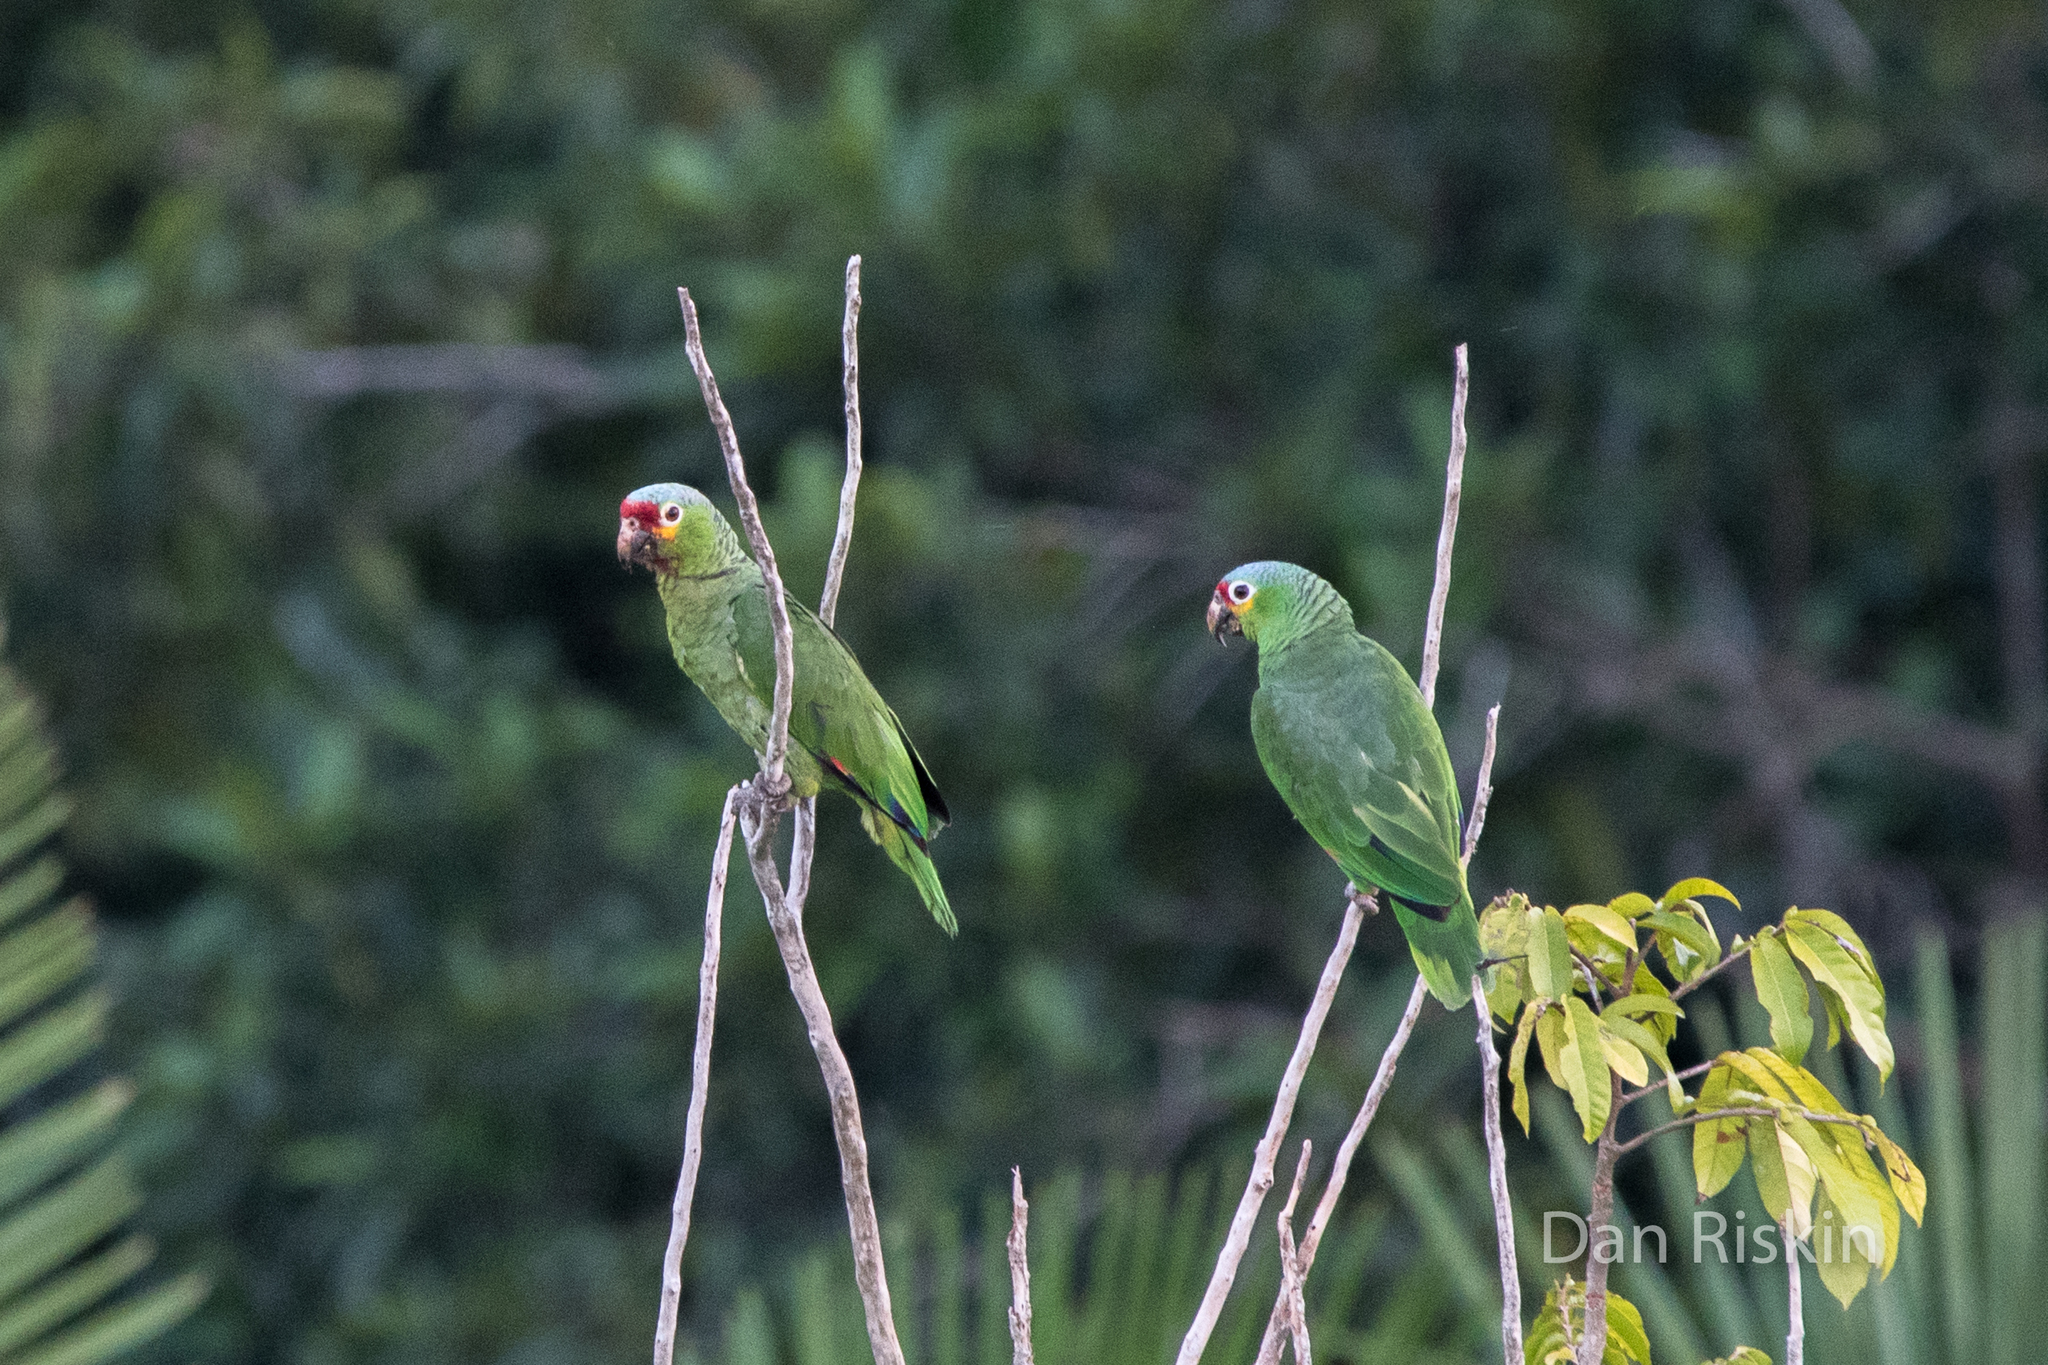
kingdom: Animalia
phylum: Chordata
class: Aves
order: Psittaciformes
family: Psittacidae
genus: Amazona
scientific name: Amazona autumnalis
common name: Red-lored amazon
